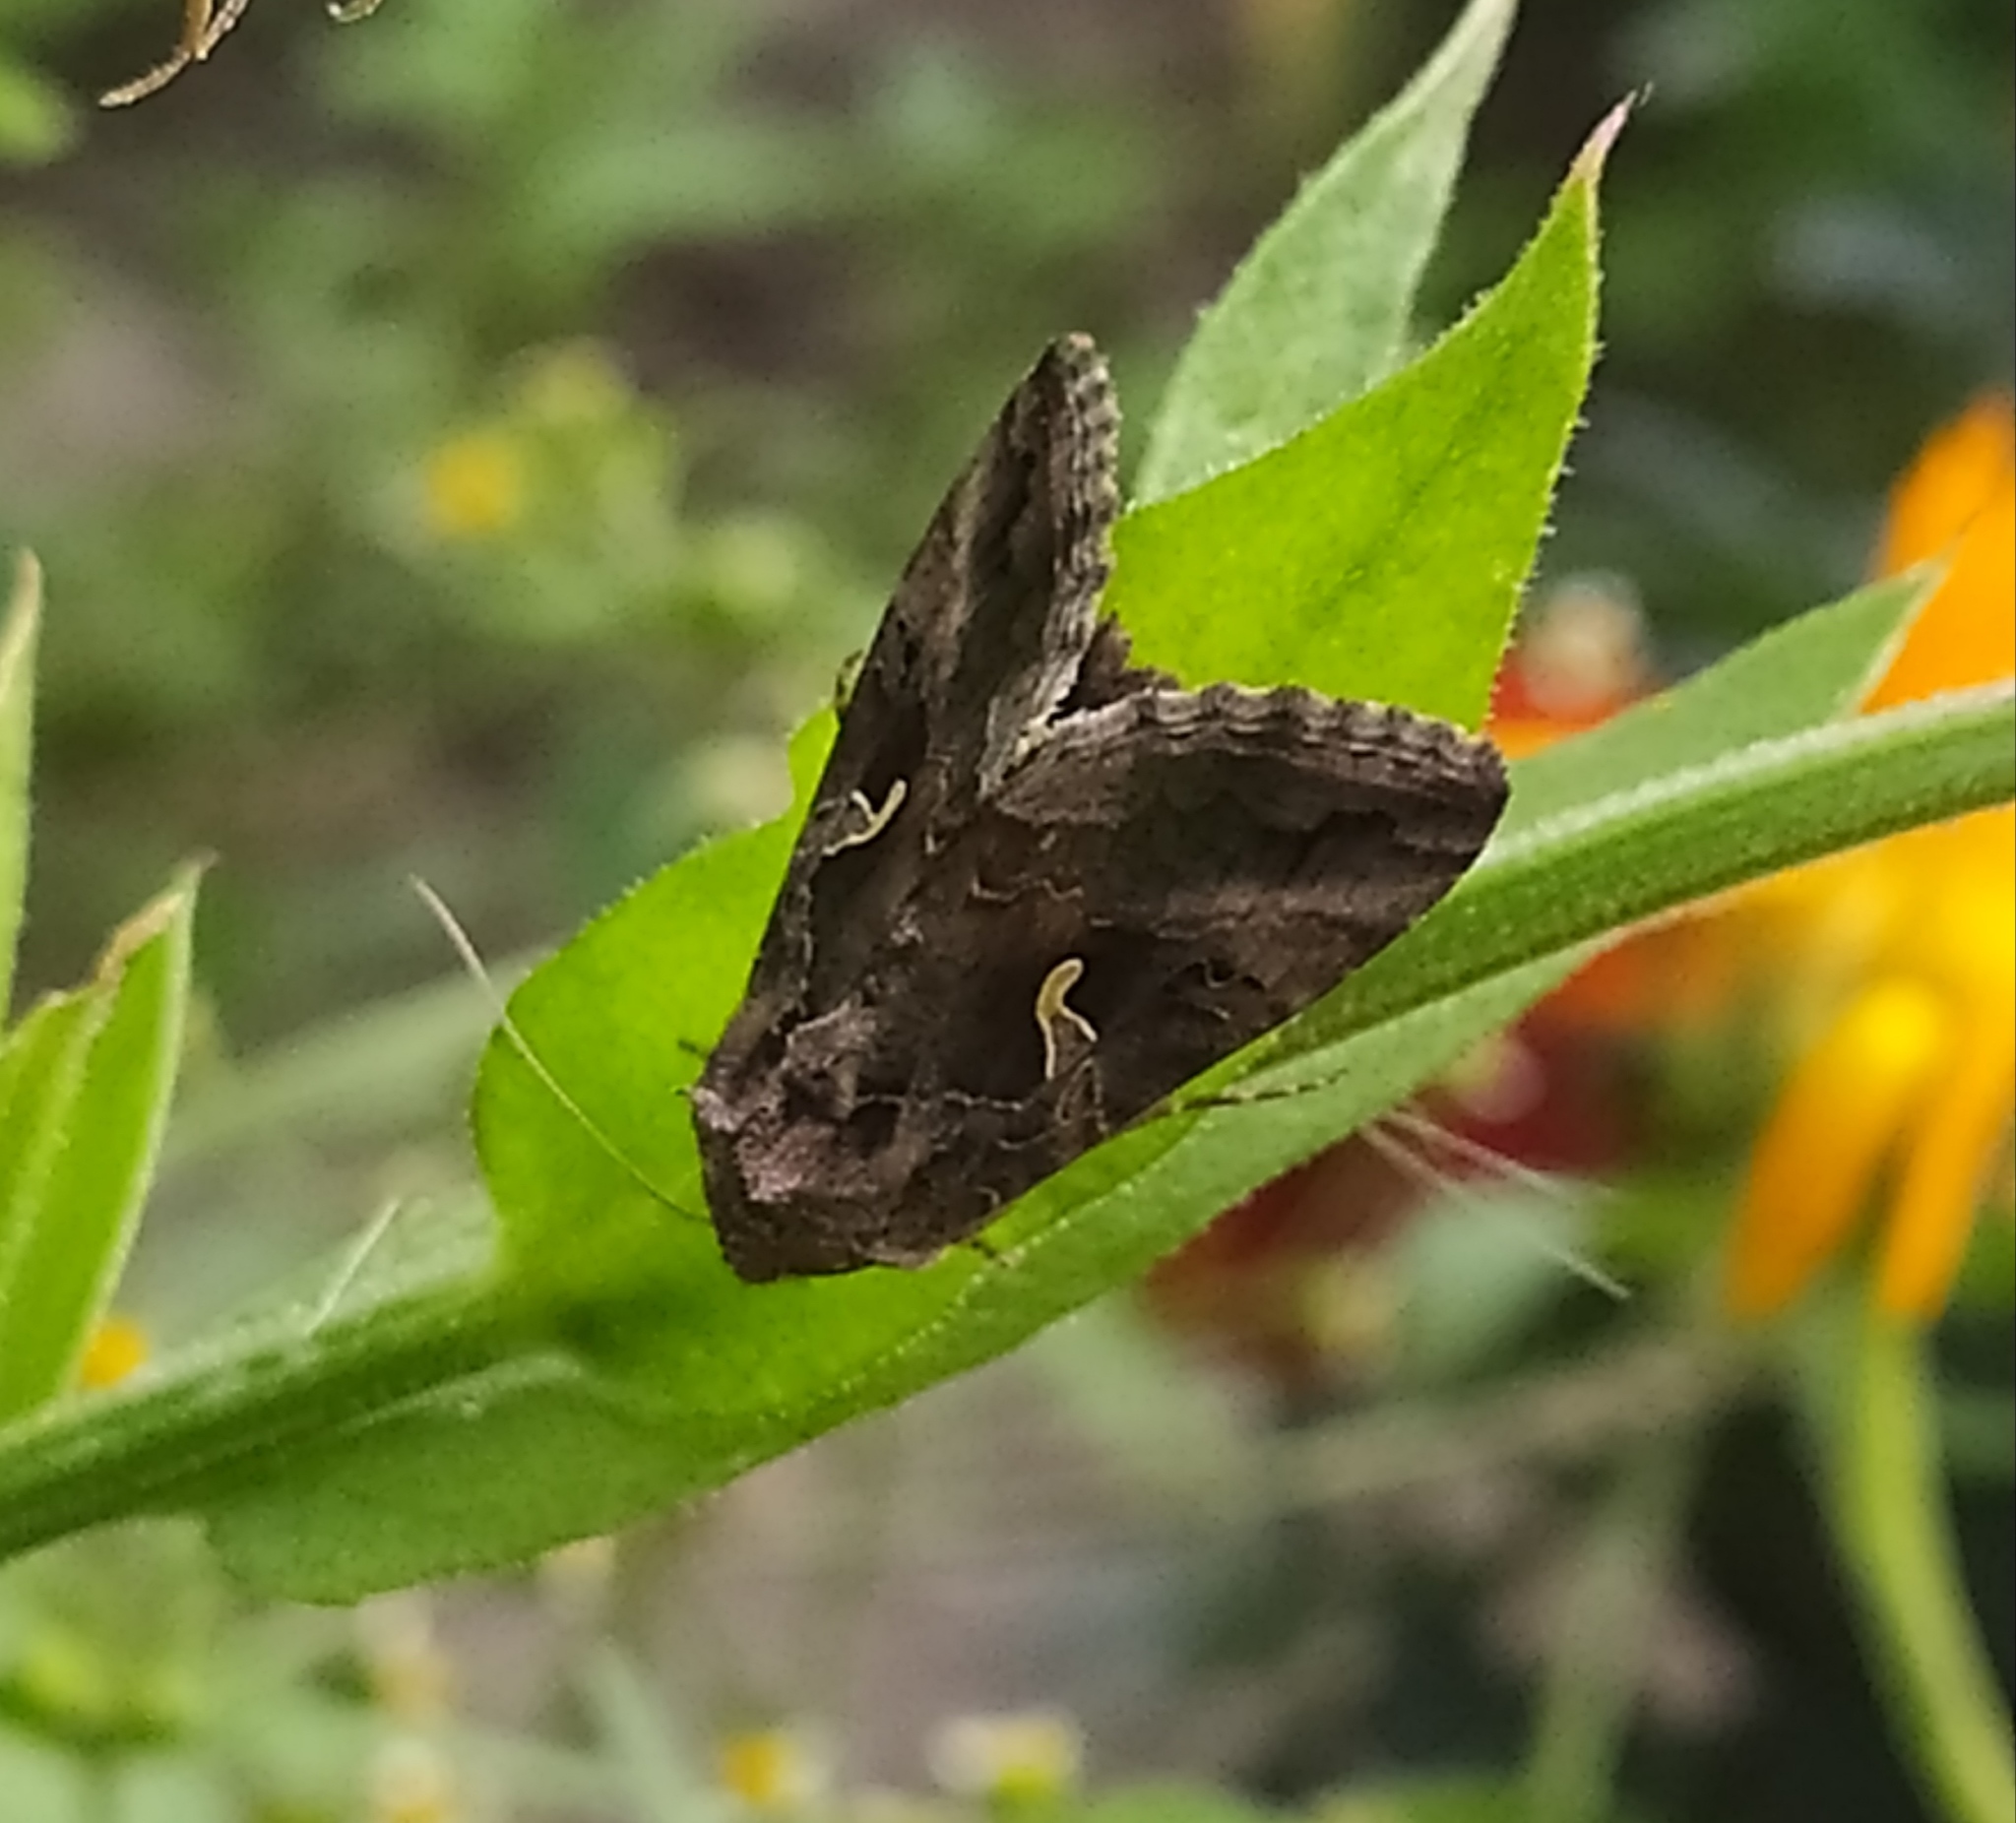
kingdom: Animalia
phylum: Arthropoda
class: Insecta
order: Lepidoptera
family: Noctuidae
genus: Autographa
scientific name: Autographa gamma
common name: Silver y
